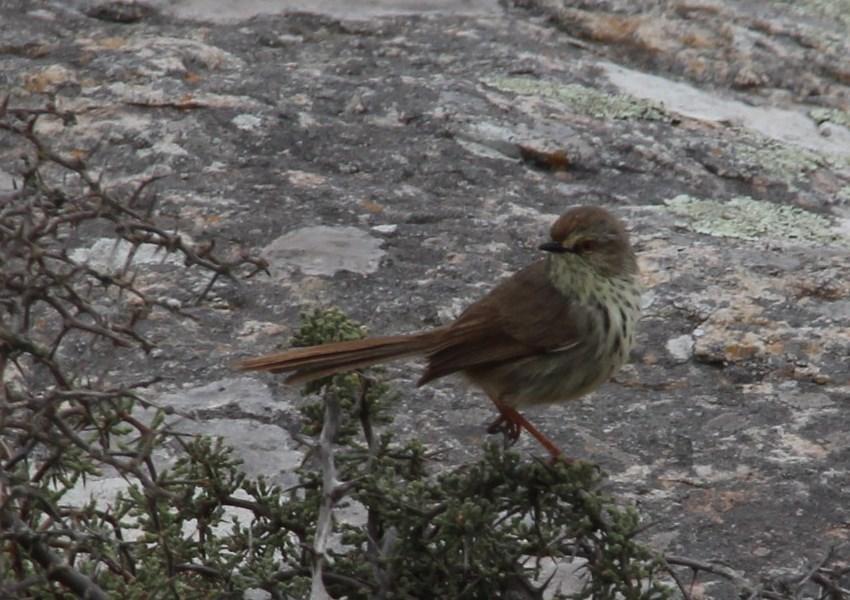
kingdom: Animalia
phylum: Chordata
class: Aves
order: Passeriformes
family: Cisticolidae
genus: Prinia
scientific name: Prinia maculosa
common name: Karoo prinia
